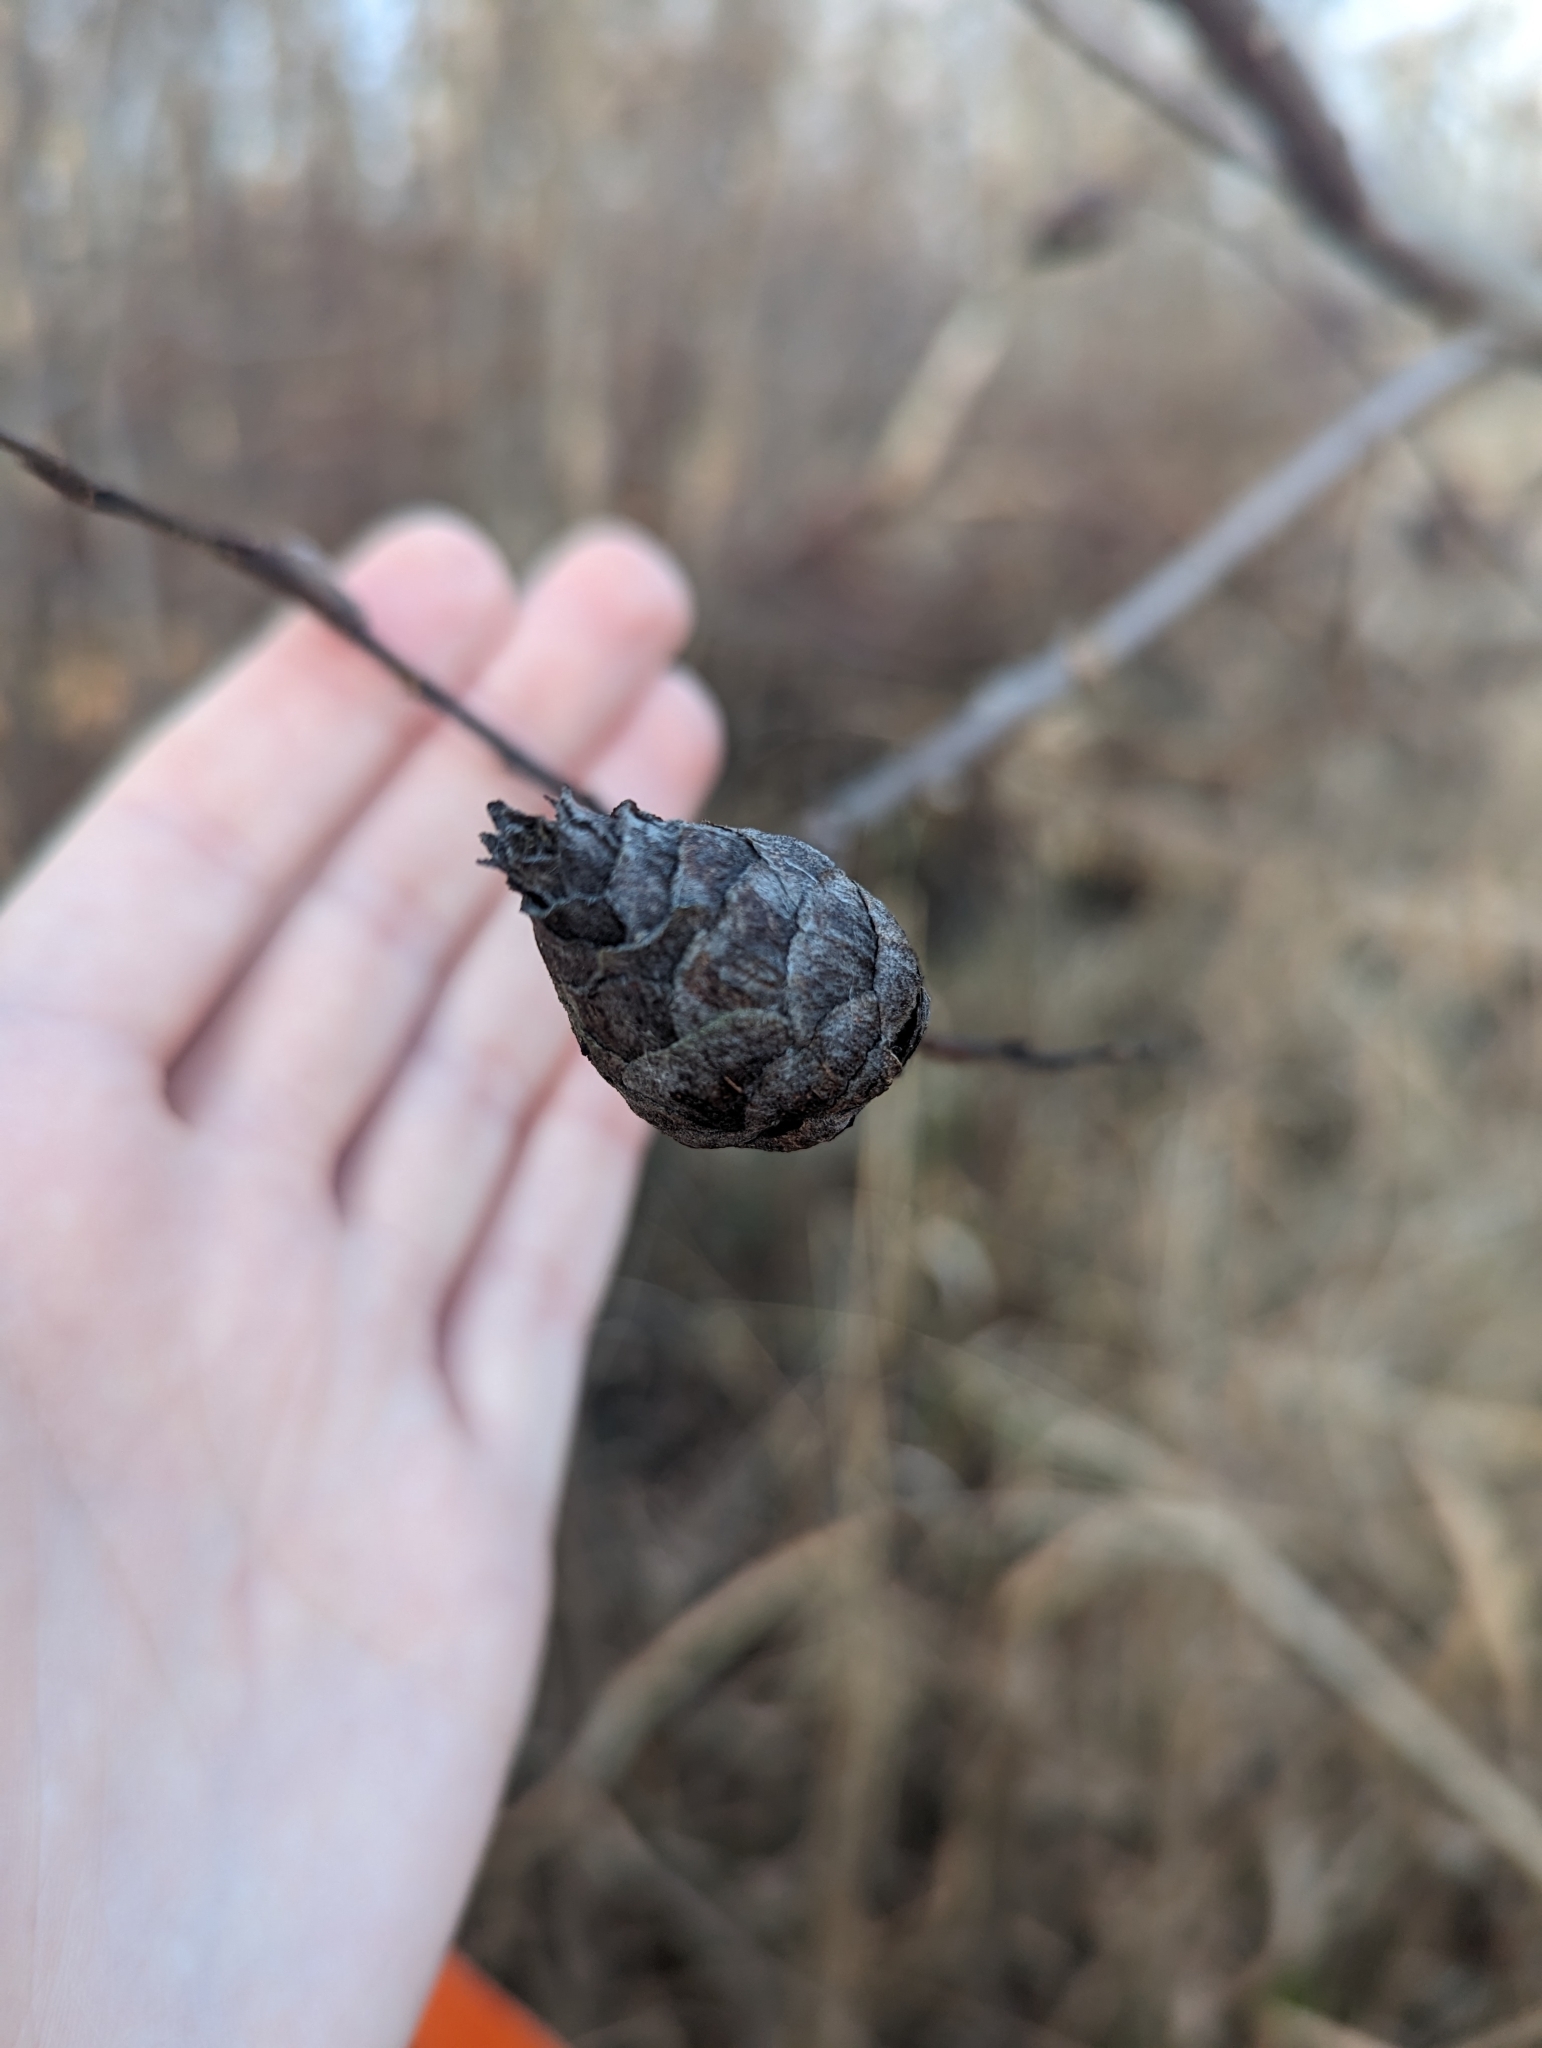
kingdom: Animalia
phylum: Arthropoda
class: Insecta
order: Diptera
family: Cecidomyiidae
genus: Rabdophaga
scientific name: Rabdophaga strobiloides
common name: Willow pinecone gall midge
